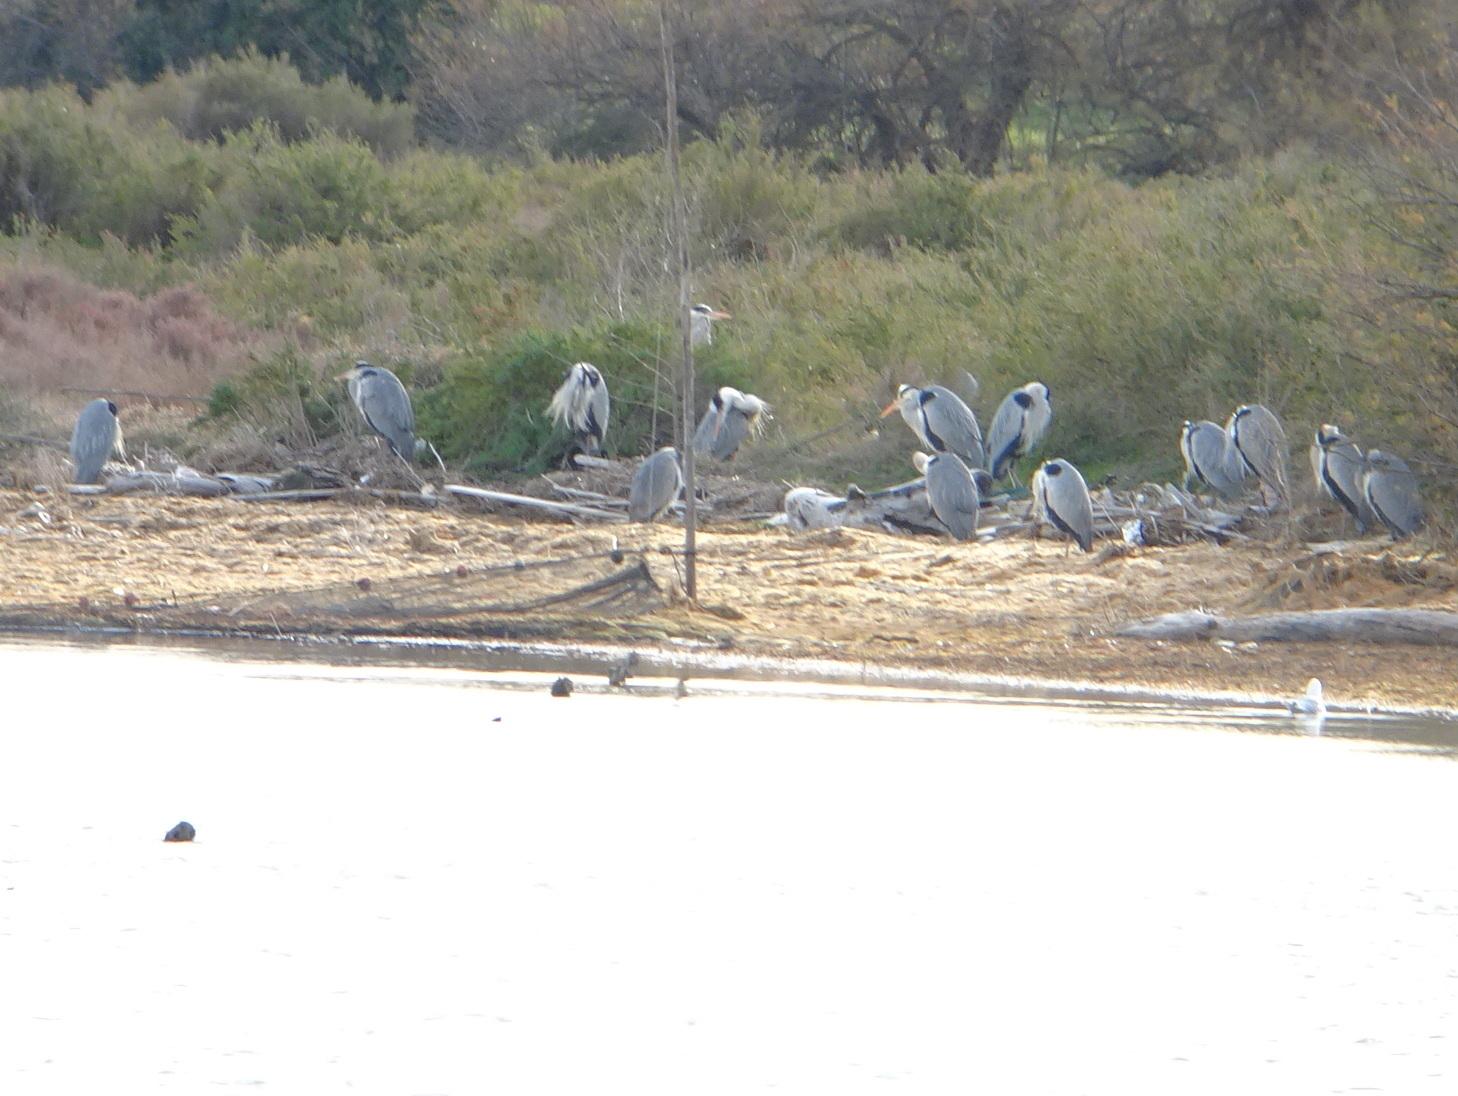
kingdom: Animalia
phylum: Chordata
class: Aves
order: Pelecaniformes
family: Ardeidae
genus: Ardea
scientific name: Ardea cinerea
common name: Grey heron
